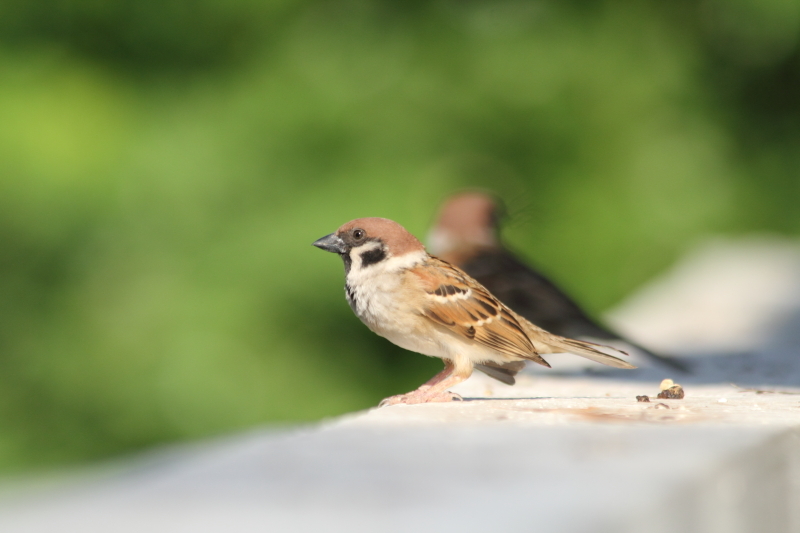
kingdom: Animalia
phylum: Chordata
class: Aves
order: Passeriformes
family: Passeridae
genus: Passer
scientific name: Passer montanus
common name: Eurasian tree sparrow
